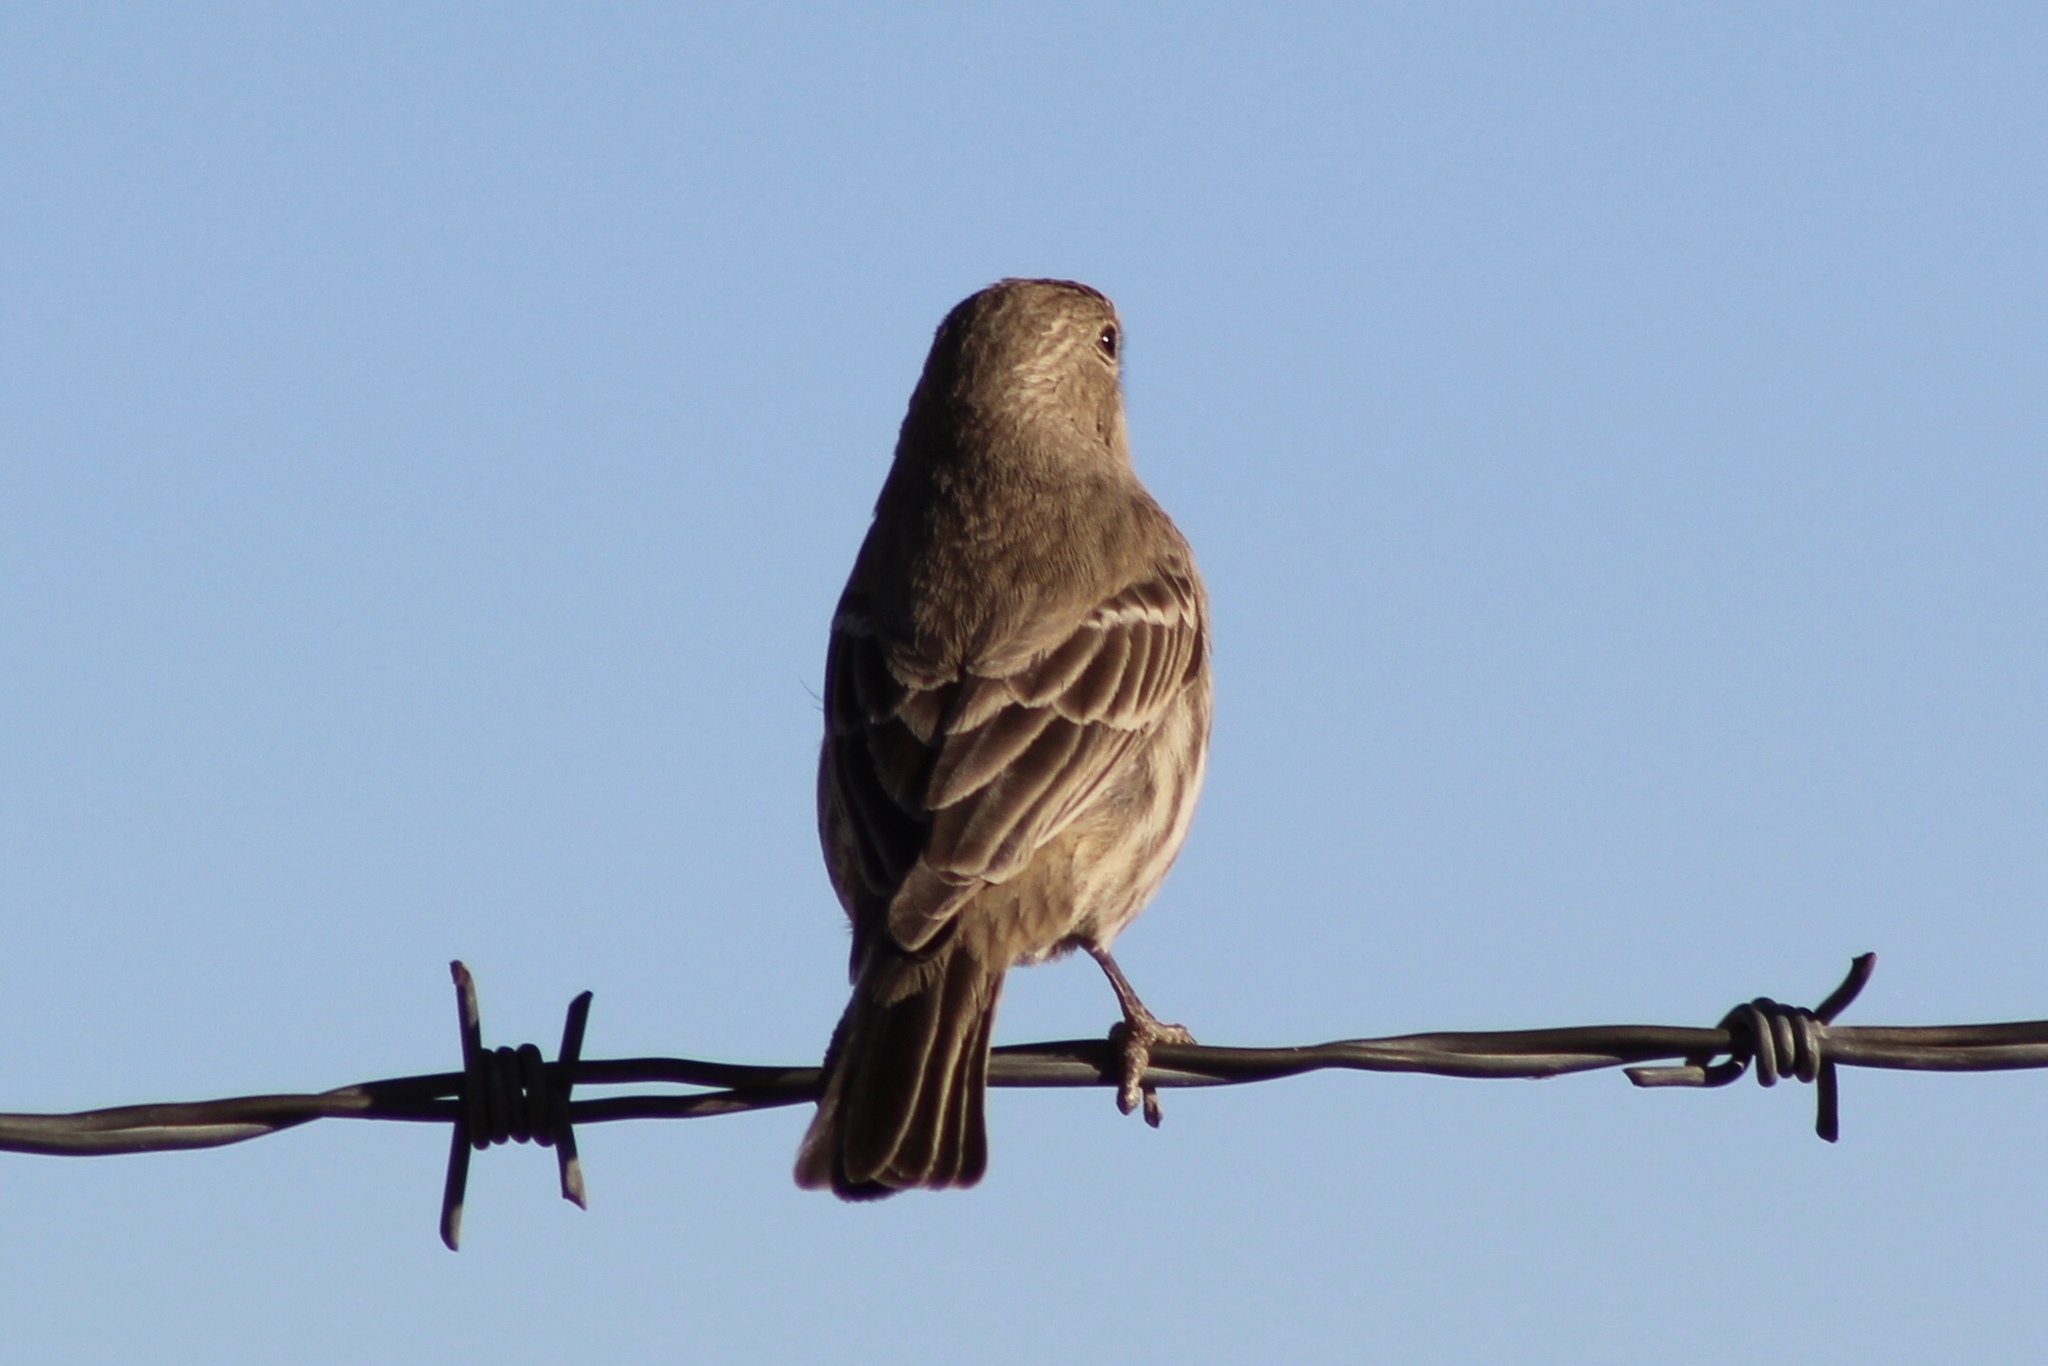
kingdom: Animalia
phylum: Chordata
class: Aves
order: Passeriformes
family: Fringillidae
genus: Haemorhous
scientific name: Haemorhous mexicanus
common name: House finch
